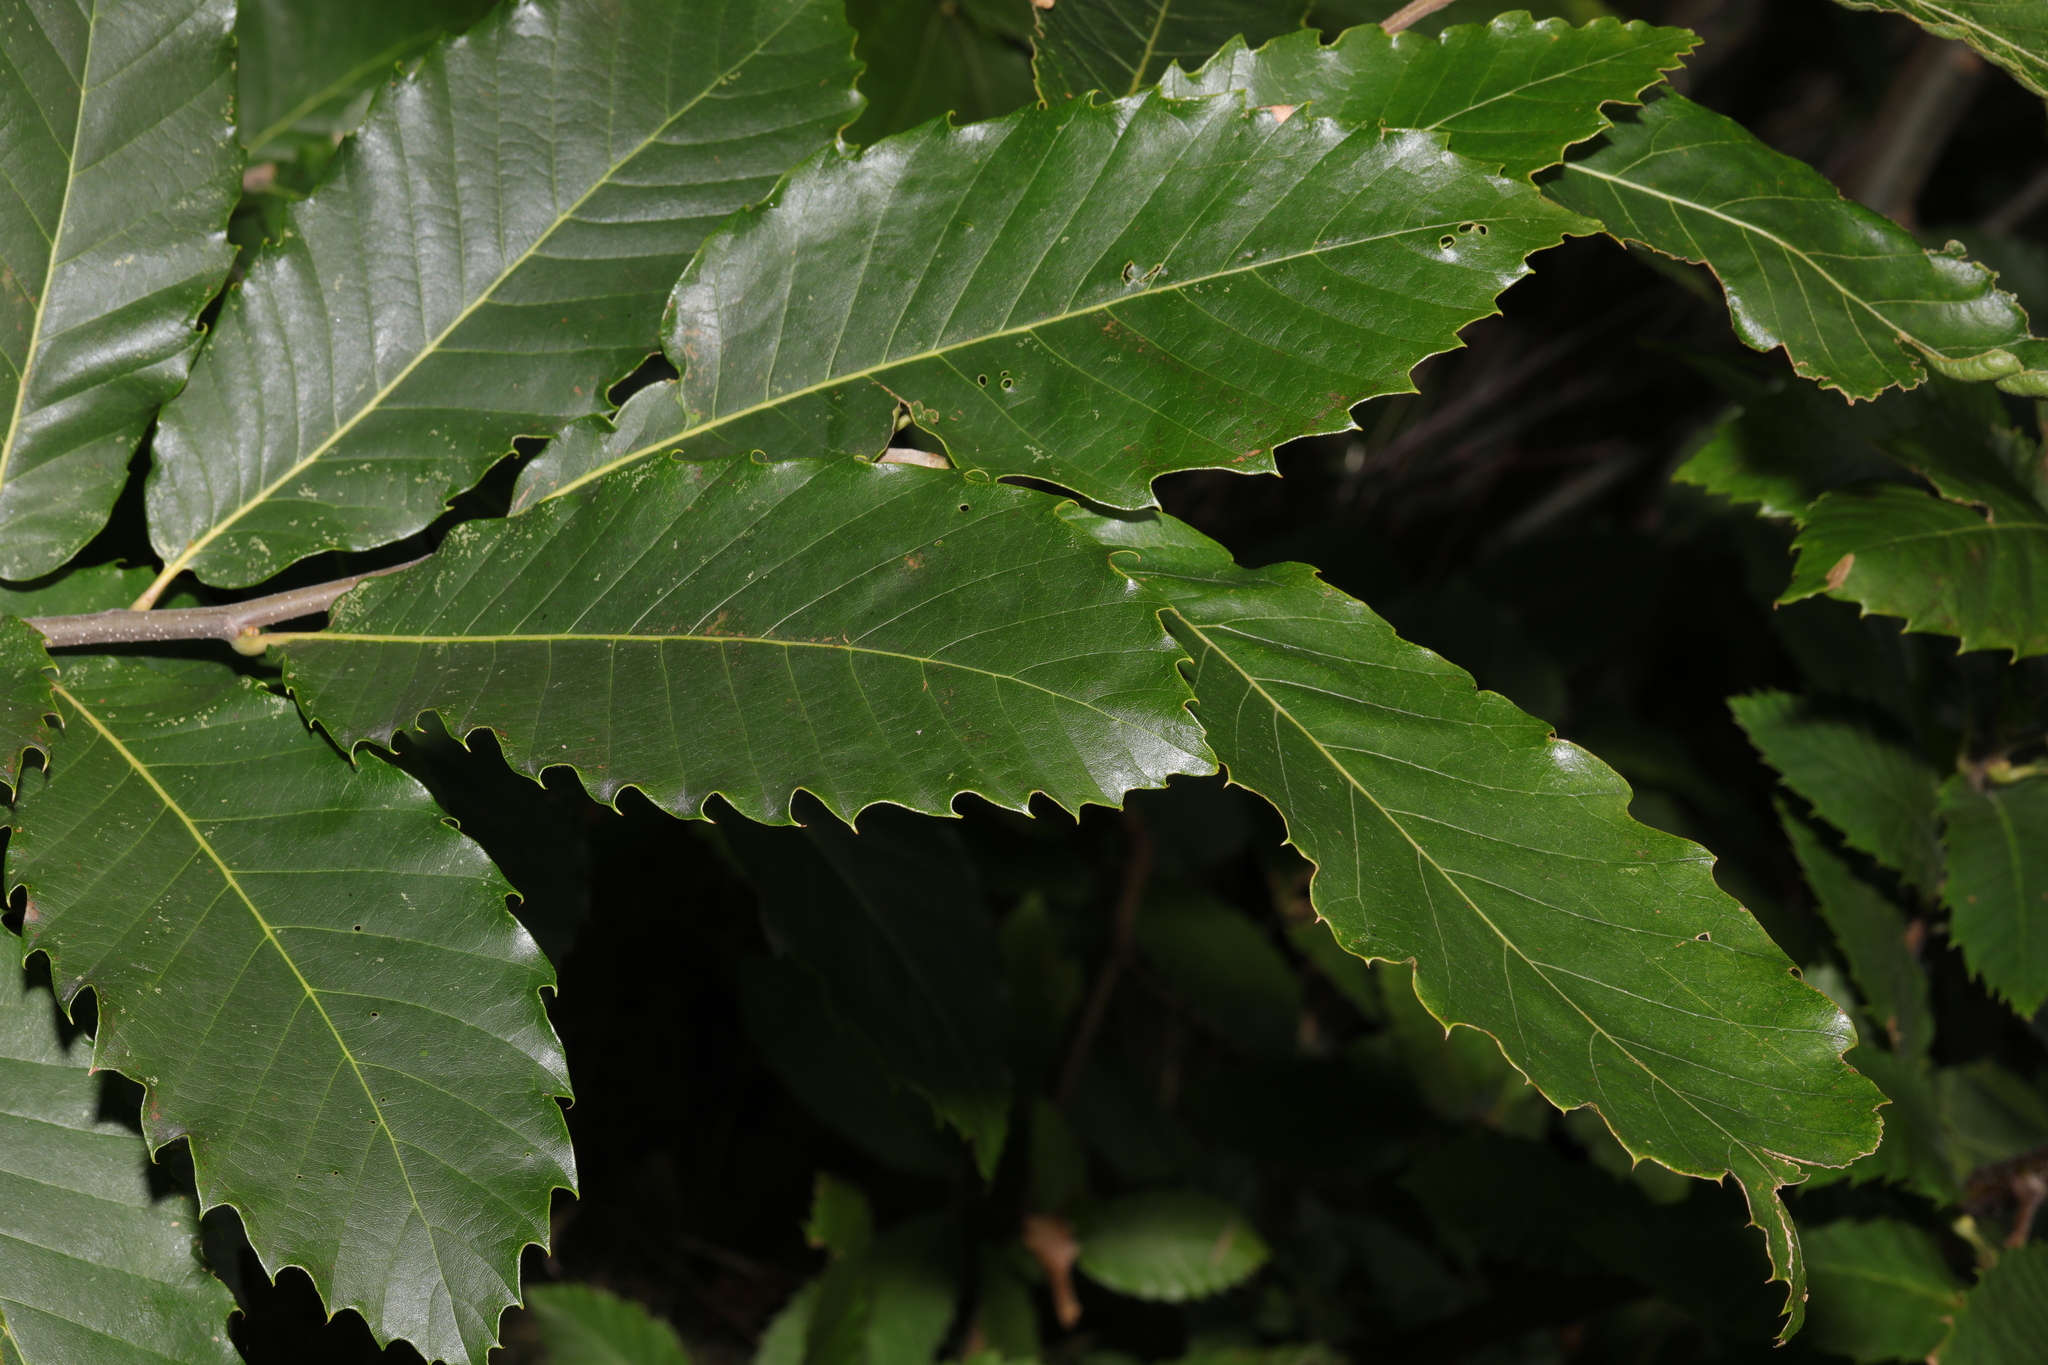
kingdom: Plantae
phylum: Tracheophyta
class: Magnoliopsida
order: Fagales
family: Fagaceae
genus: Castanea
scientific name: Castanea sativa
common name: Sweet chestnut
